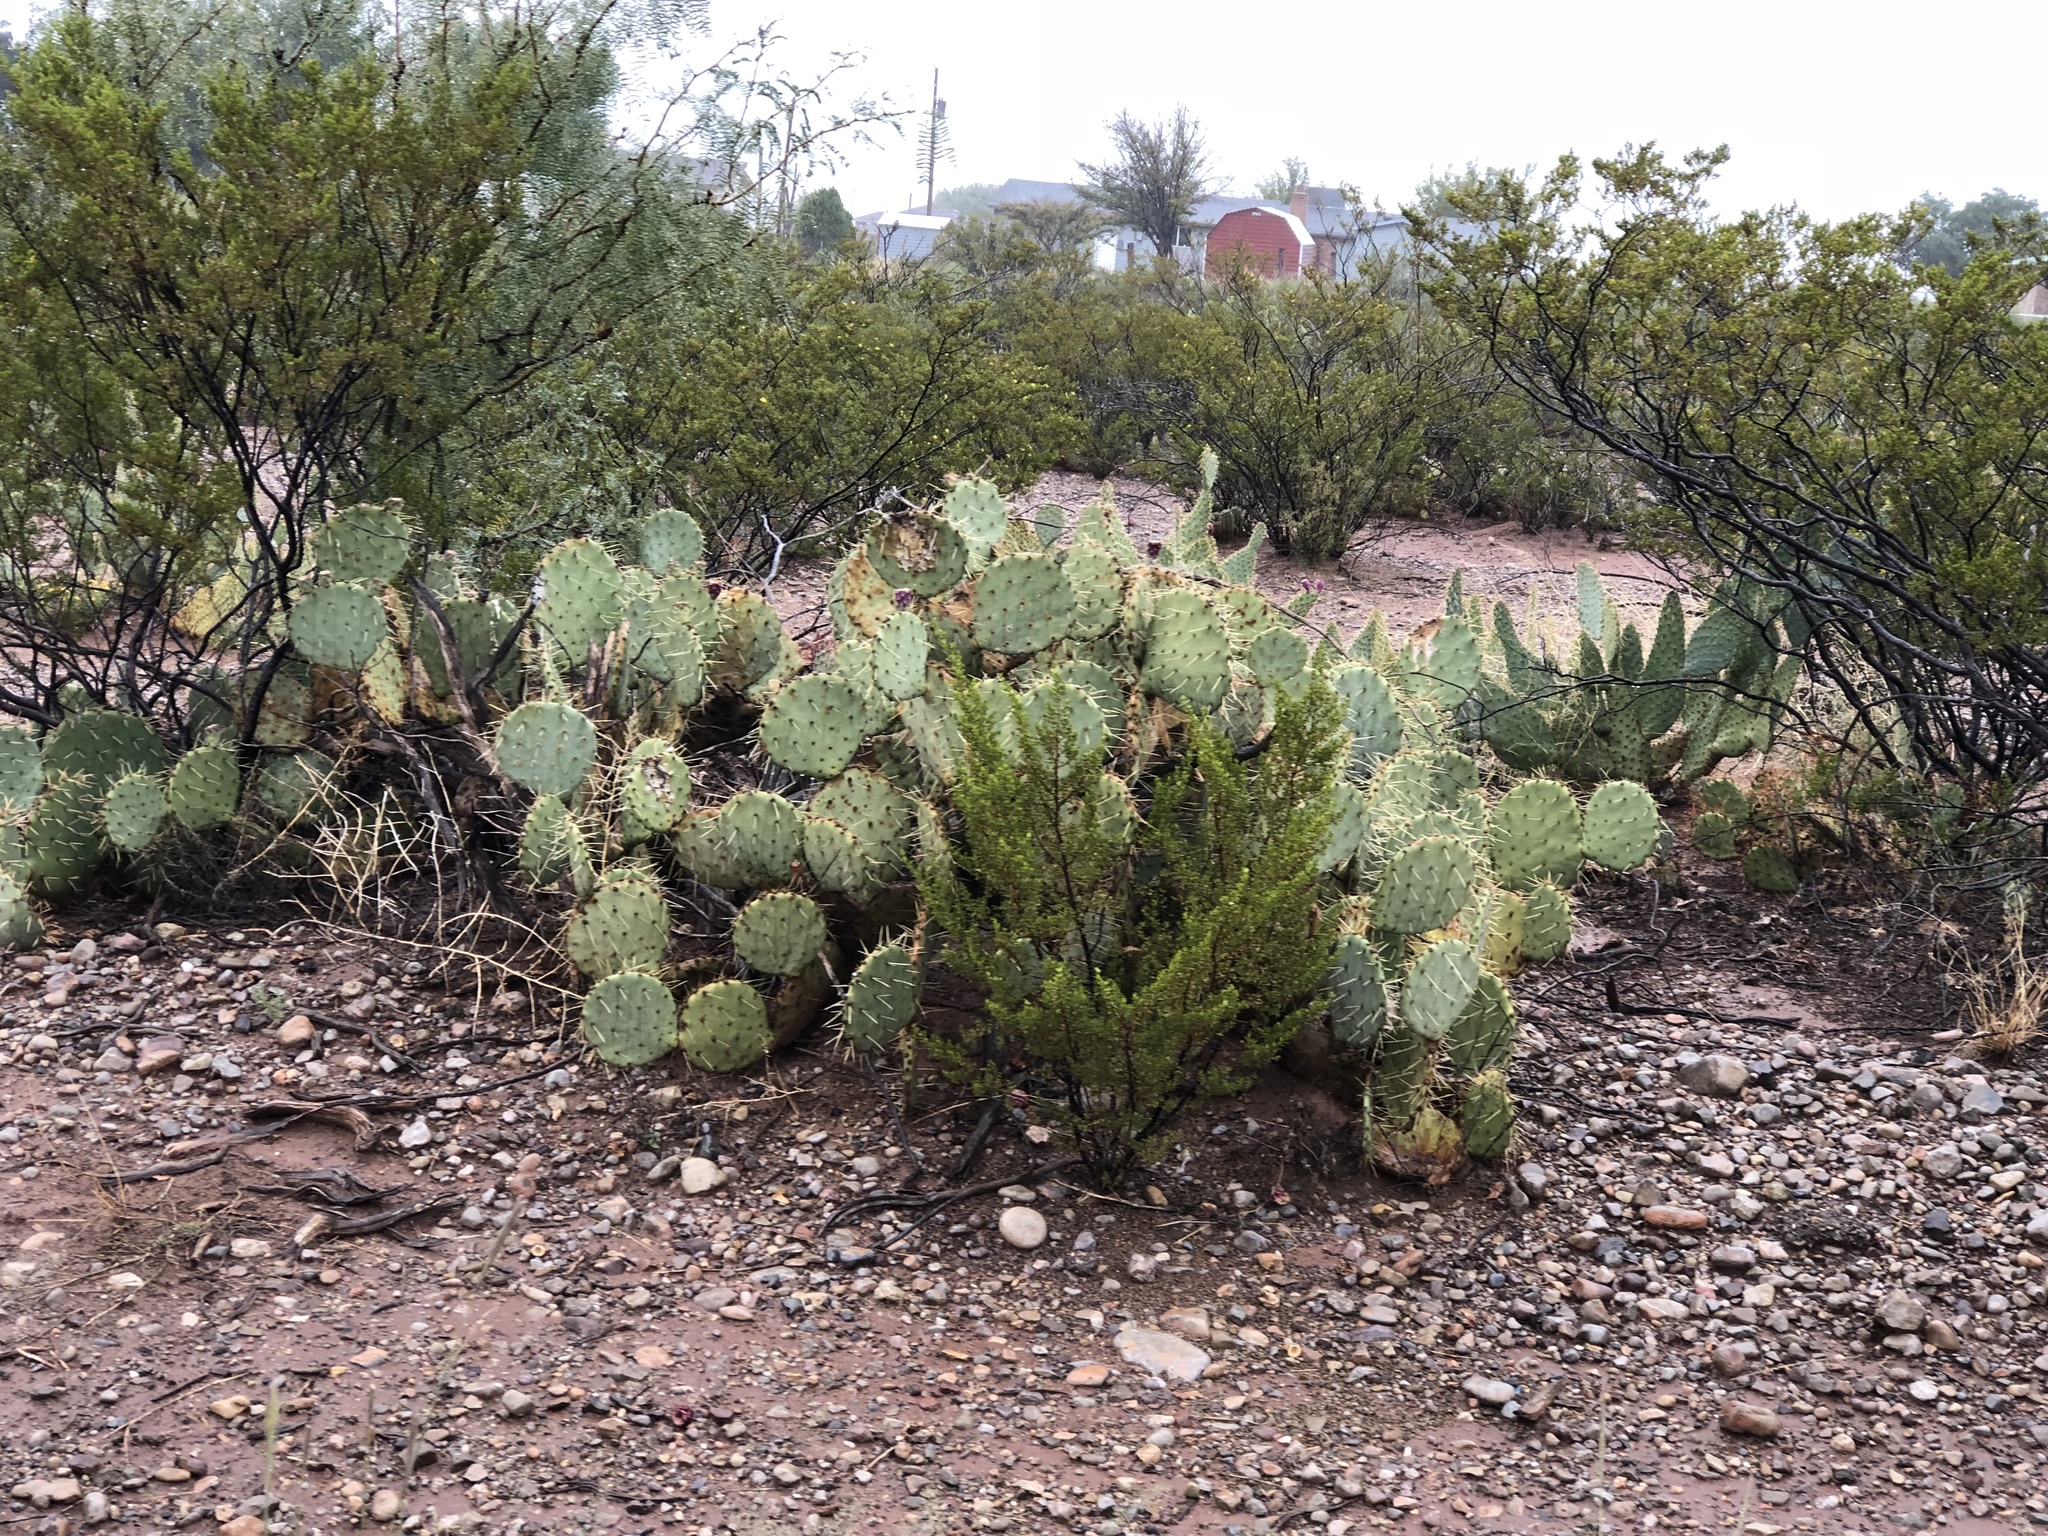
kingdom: Plantae
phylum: Tracheophyta
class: Magnoliopsida
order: Caryophyllales
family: Cactaceae
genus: Opuntia
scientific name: Opuntia orbiculata
